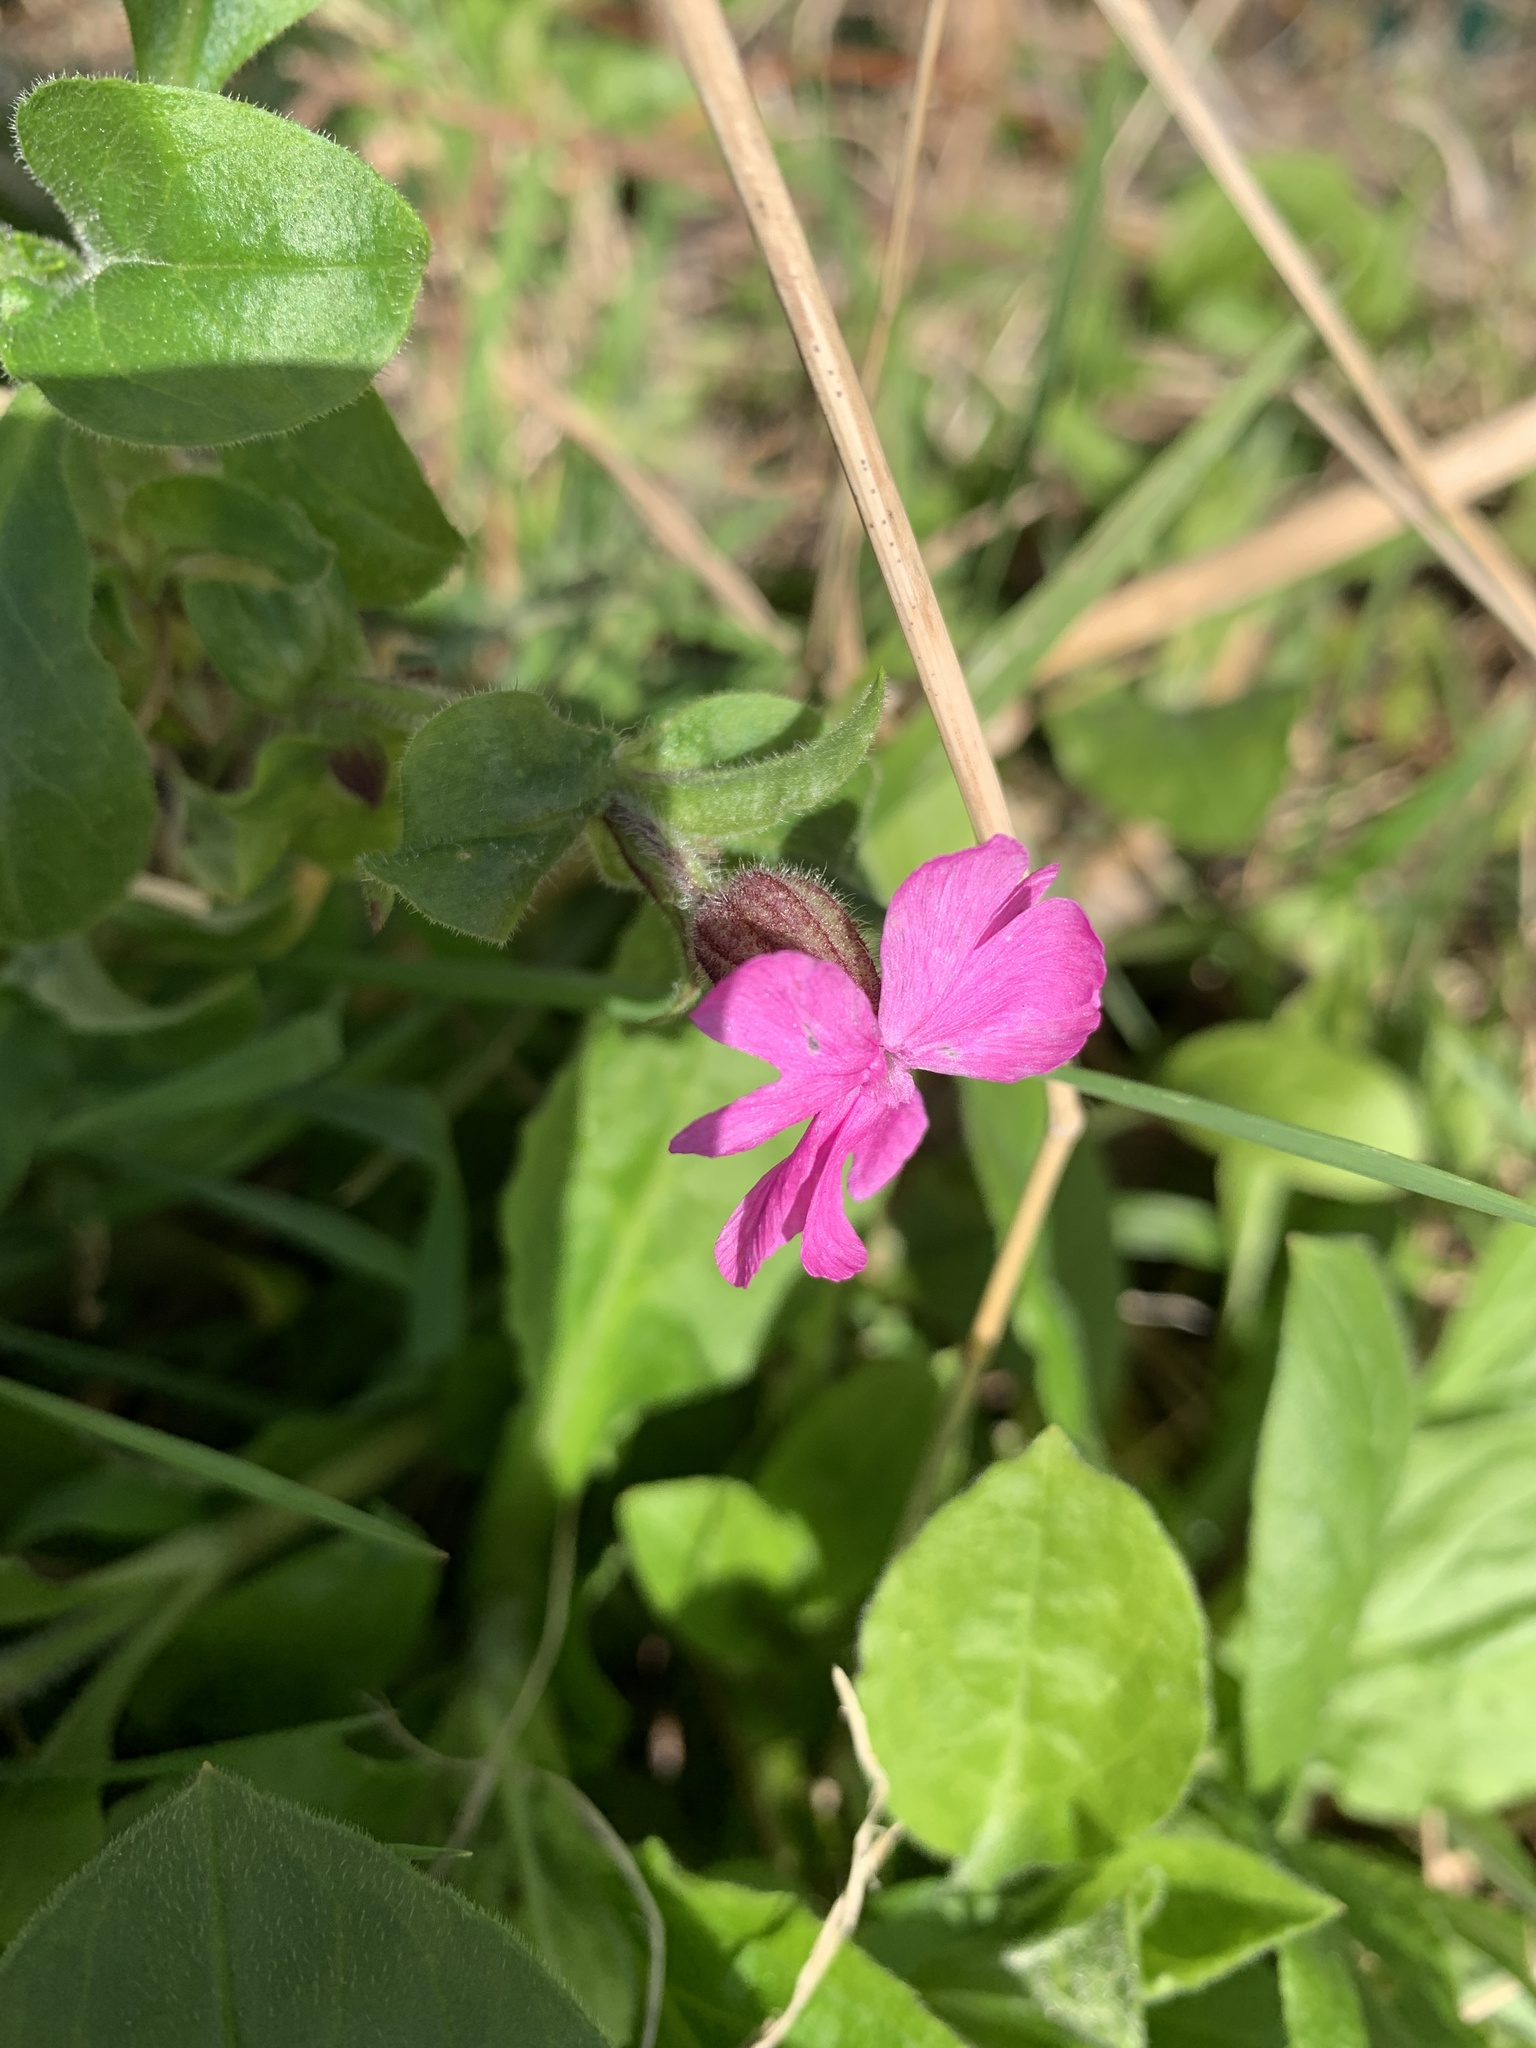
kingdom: Plantae
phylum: Tracheophyta
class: Magnoliopsida
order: Caryophyllales
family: Caryophyllaceae
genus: Silene
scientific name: Silene dioica
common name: Red campion
